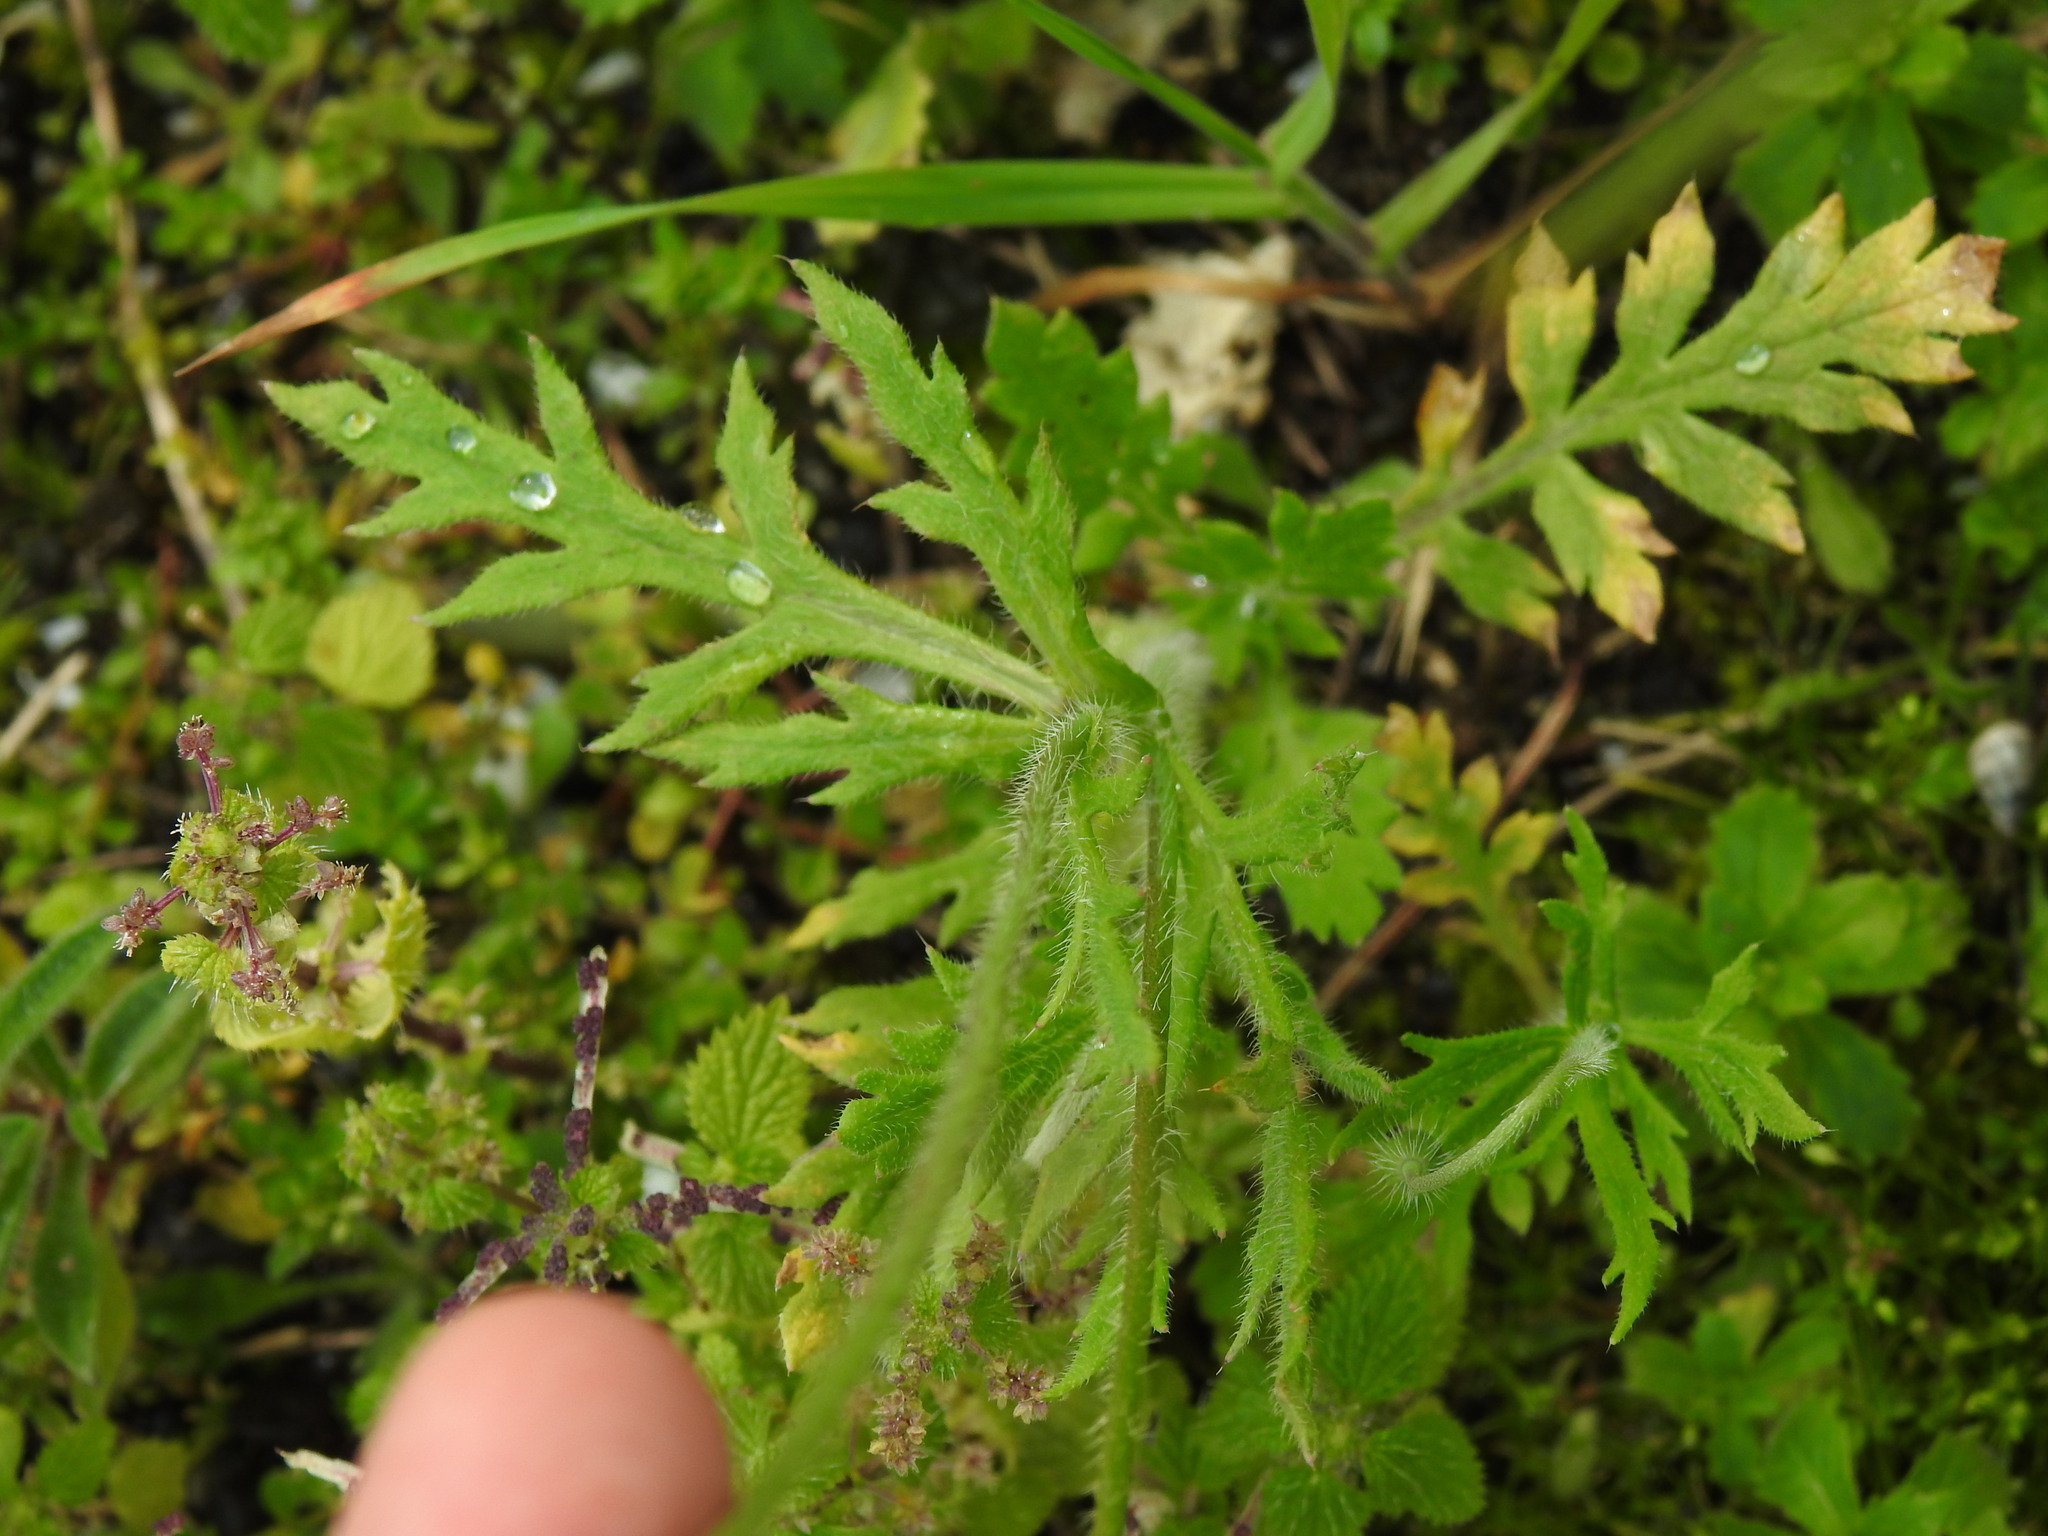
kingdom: Plantae
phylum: Tracheophyta
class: Magnoliopsida
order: Ranunculales
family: Papaveraceae
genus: Papaver
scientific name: Papaver dubium
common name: Long-headed poppy
